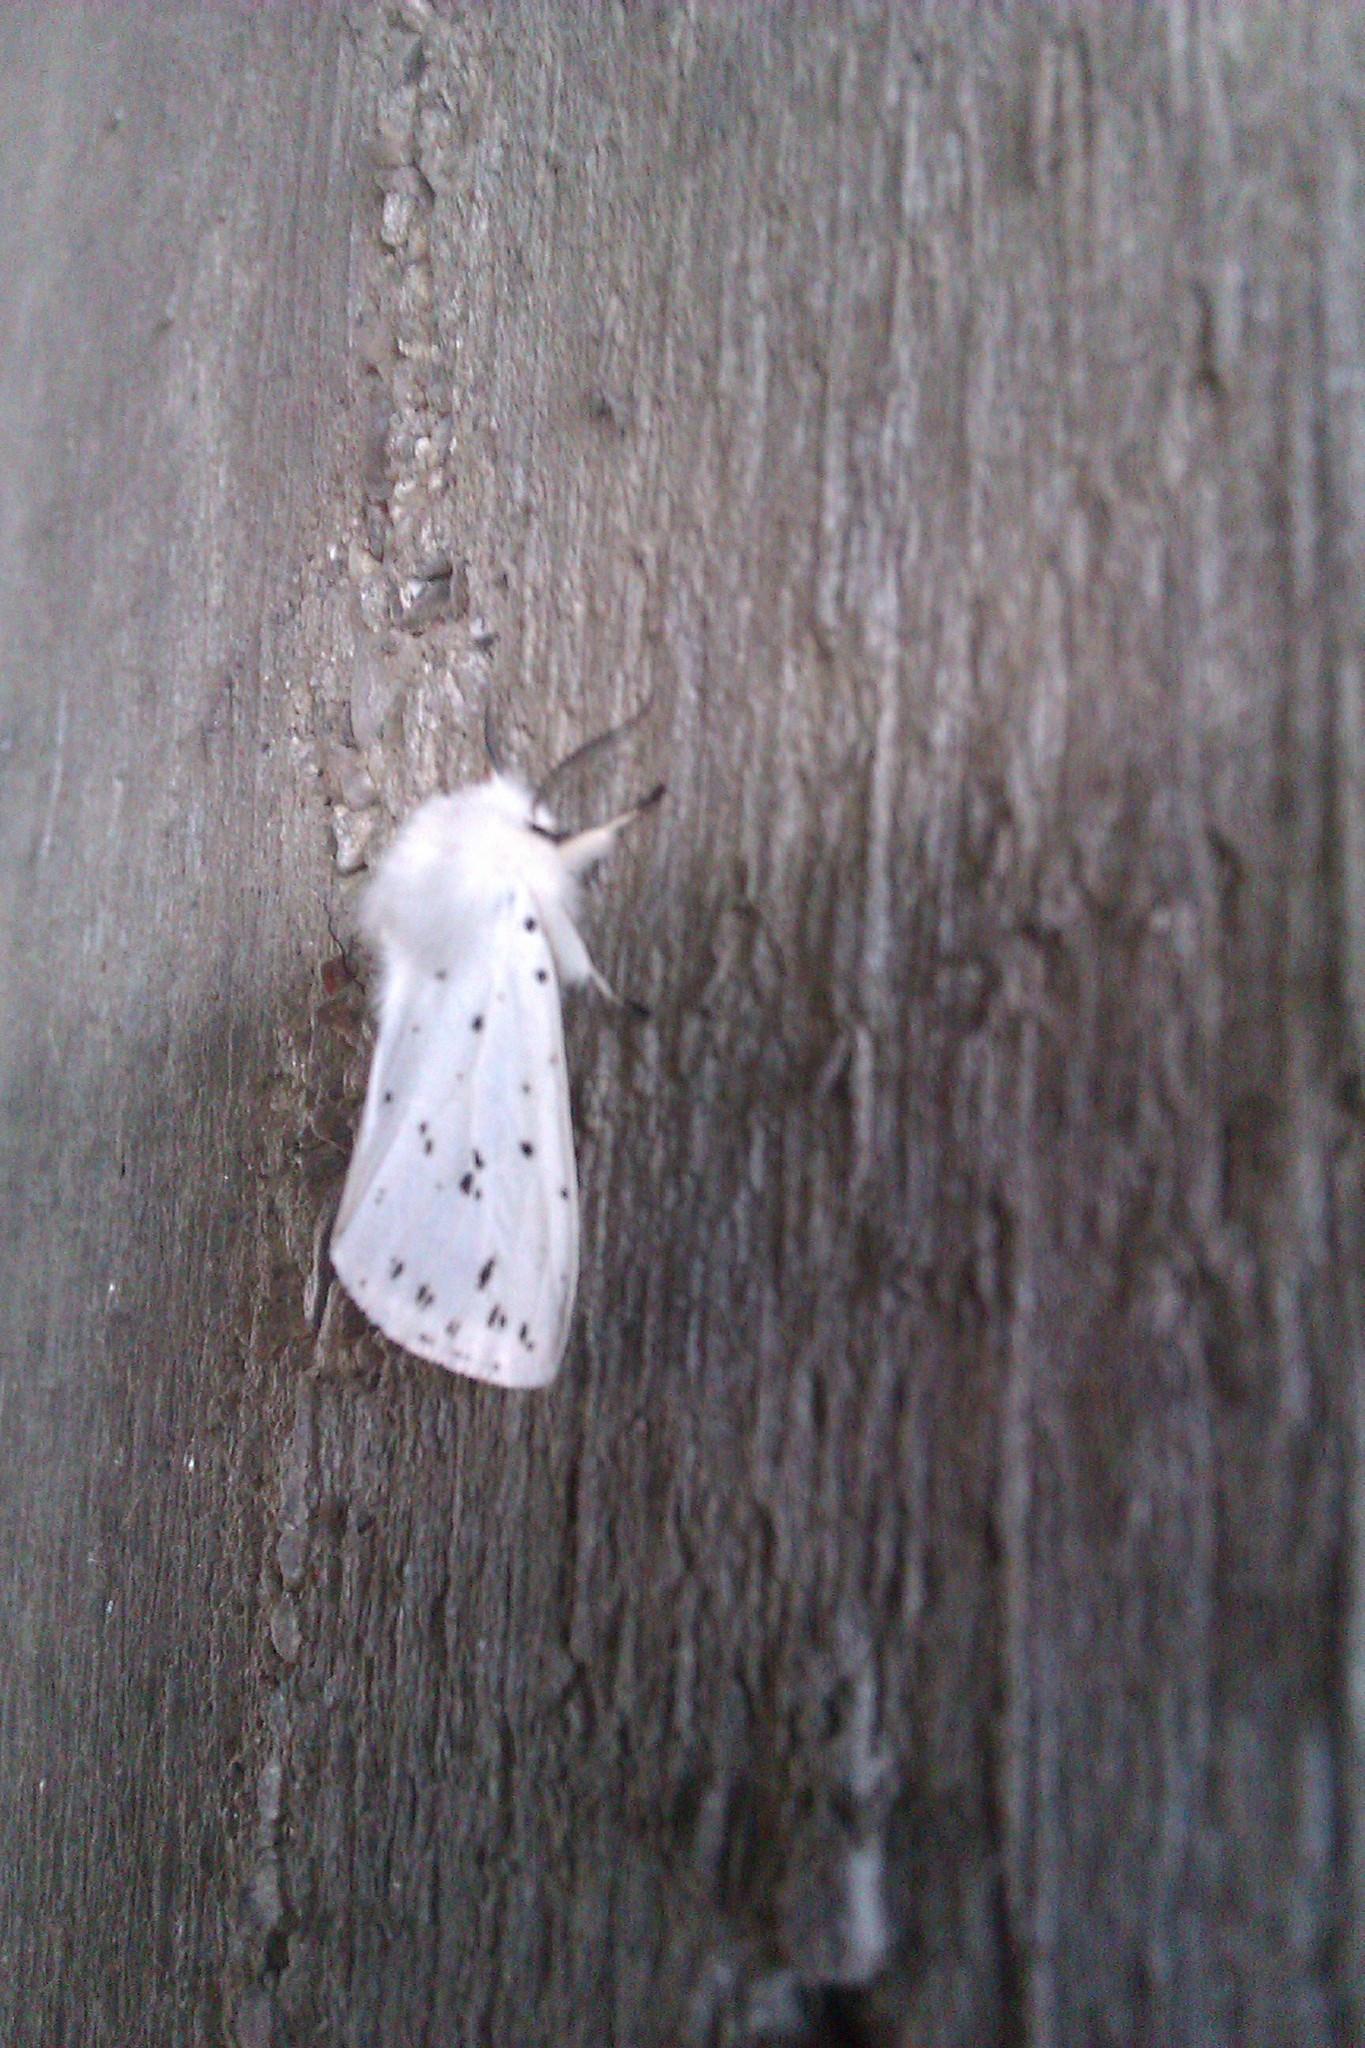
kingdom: Animalia
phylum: Arthropoda
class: Insecta
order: Lepidoptera
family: Erebidae
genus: Spilosoma
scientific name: Spilosoma lubricipeda
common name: White ermine
